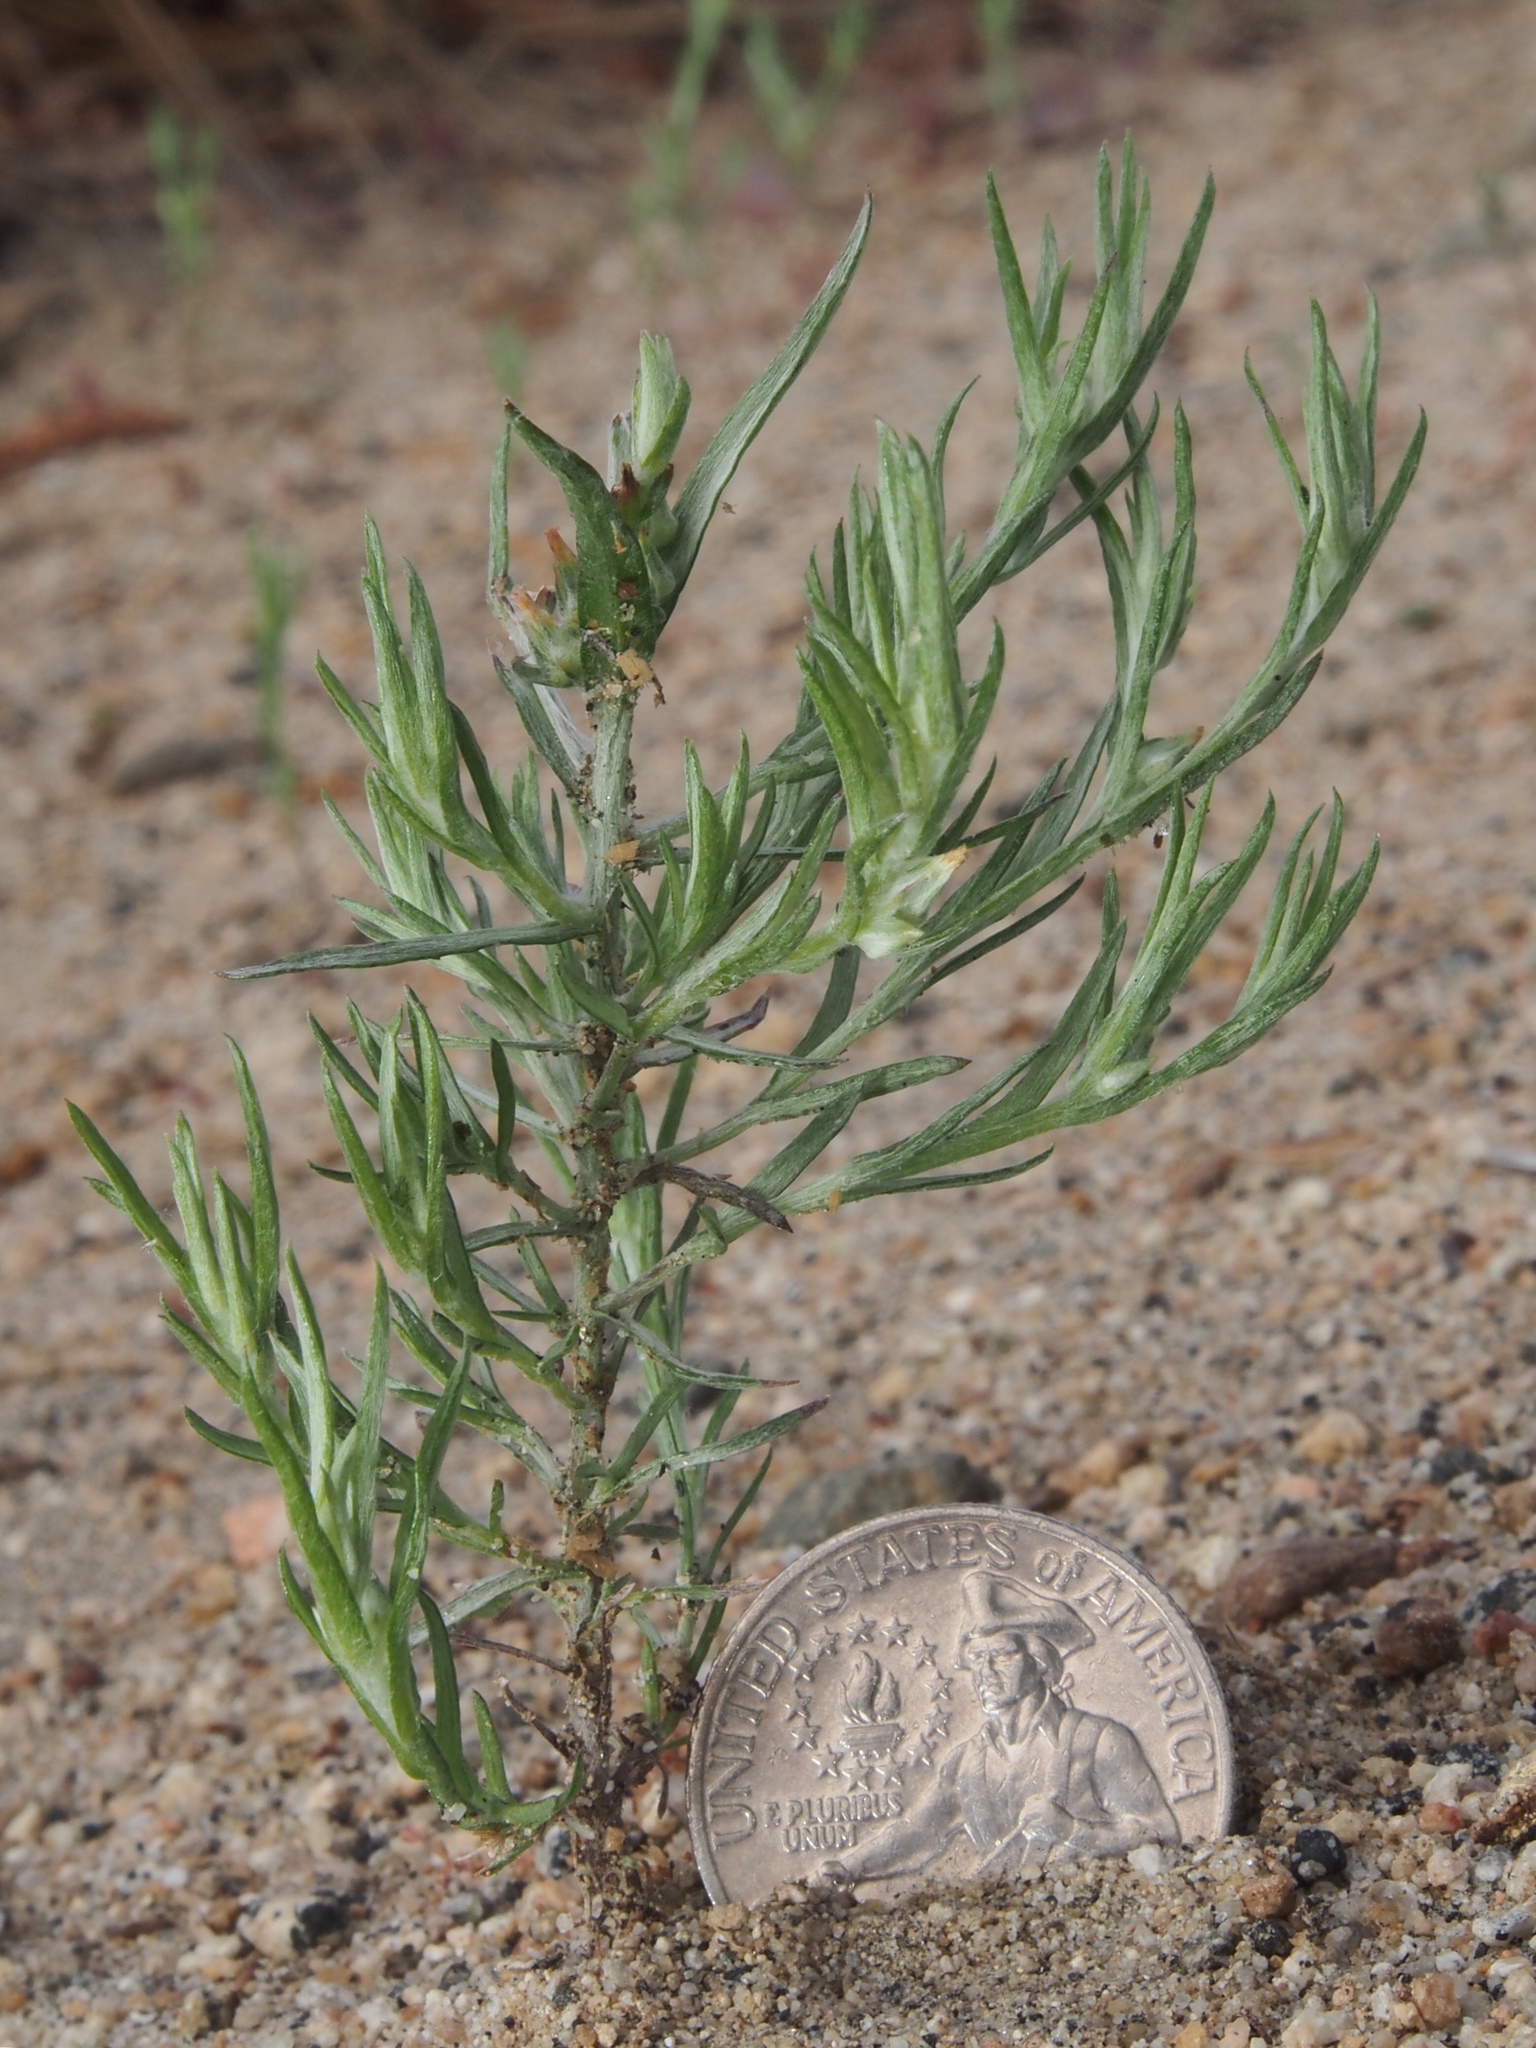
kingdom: Plantae
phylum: Tracheophyta
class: Magnoliopsida
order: Asterales
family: Asteraceae
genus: Logfia
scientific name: Logfia gallica
